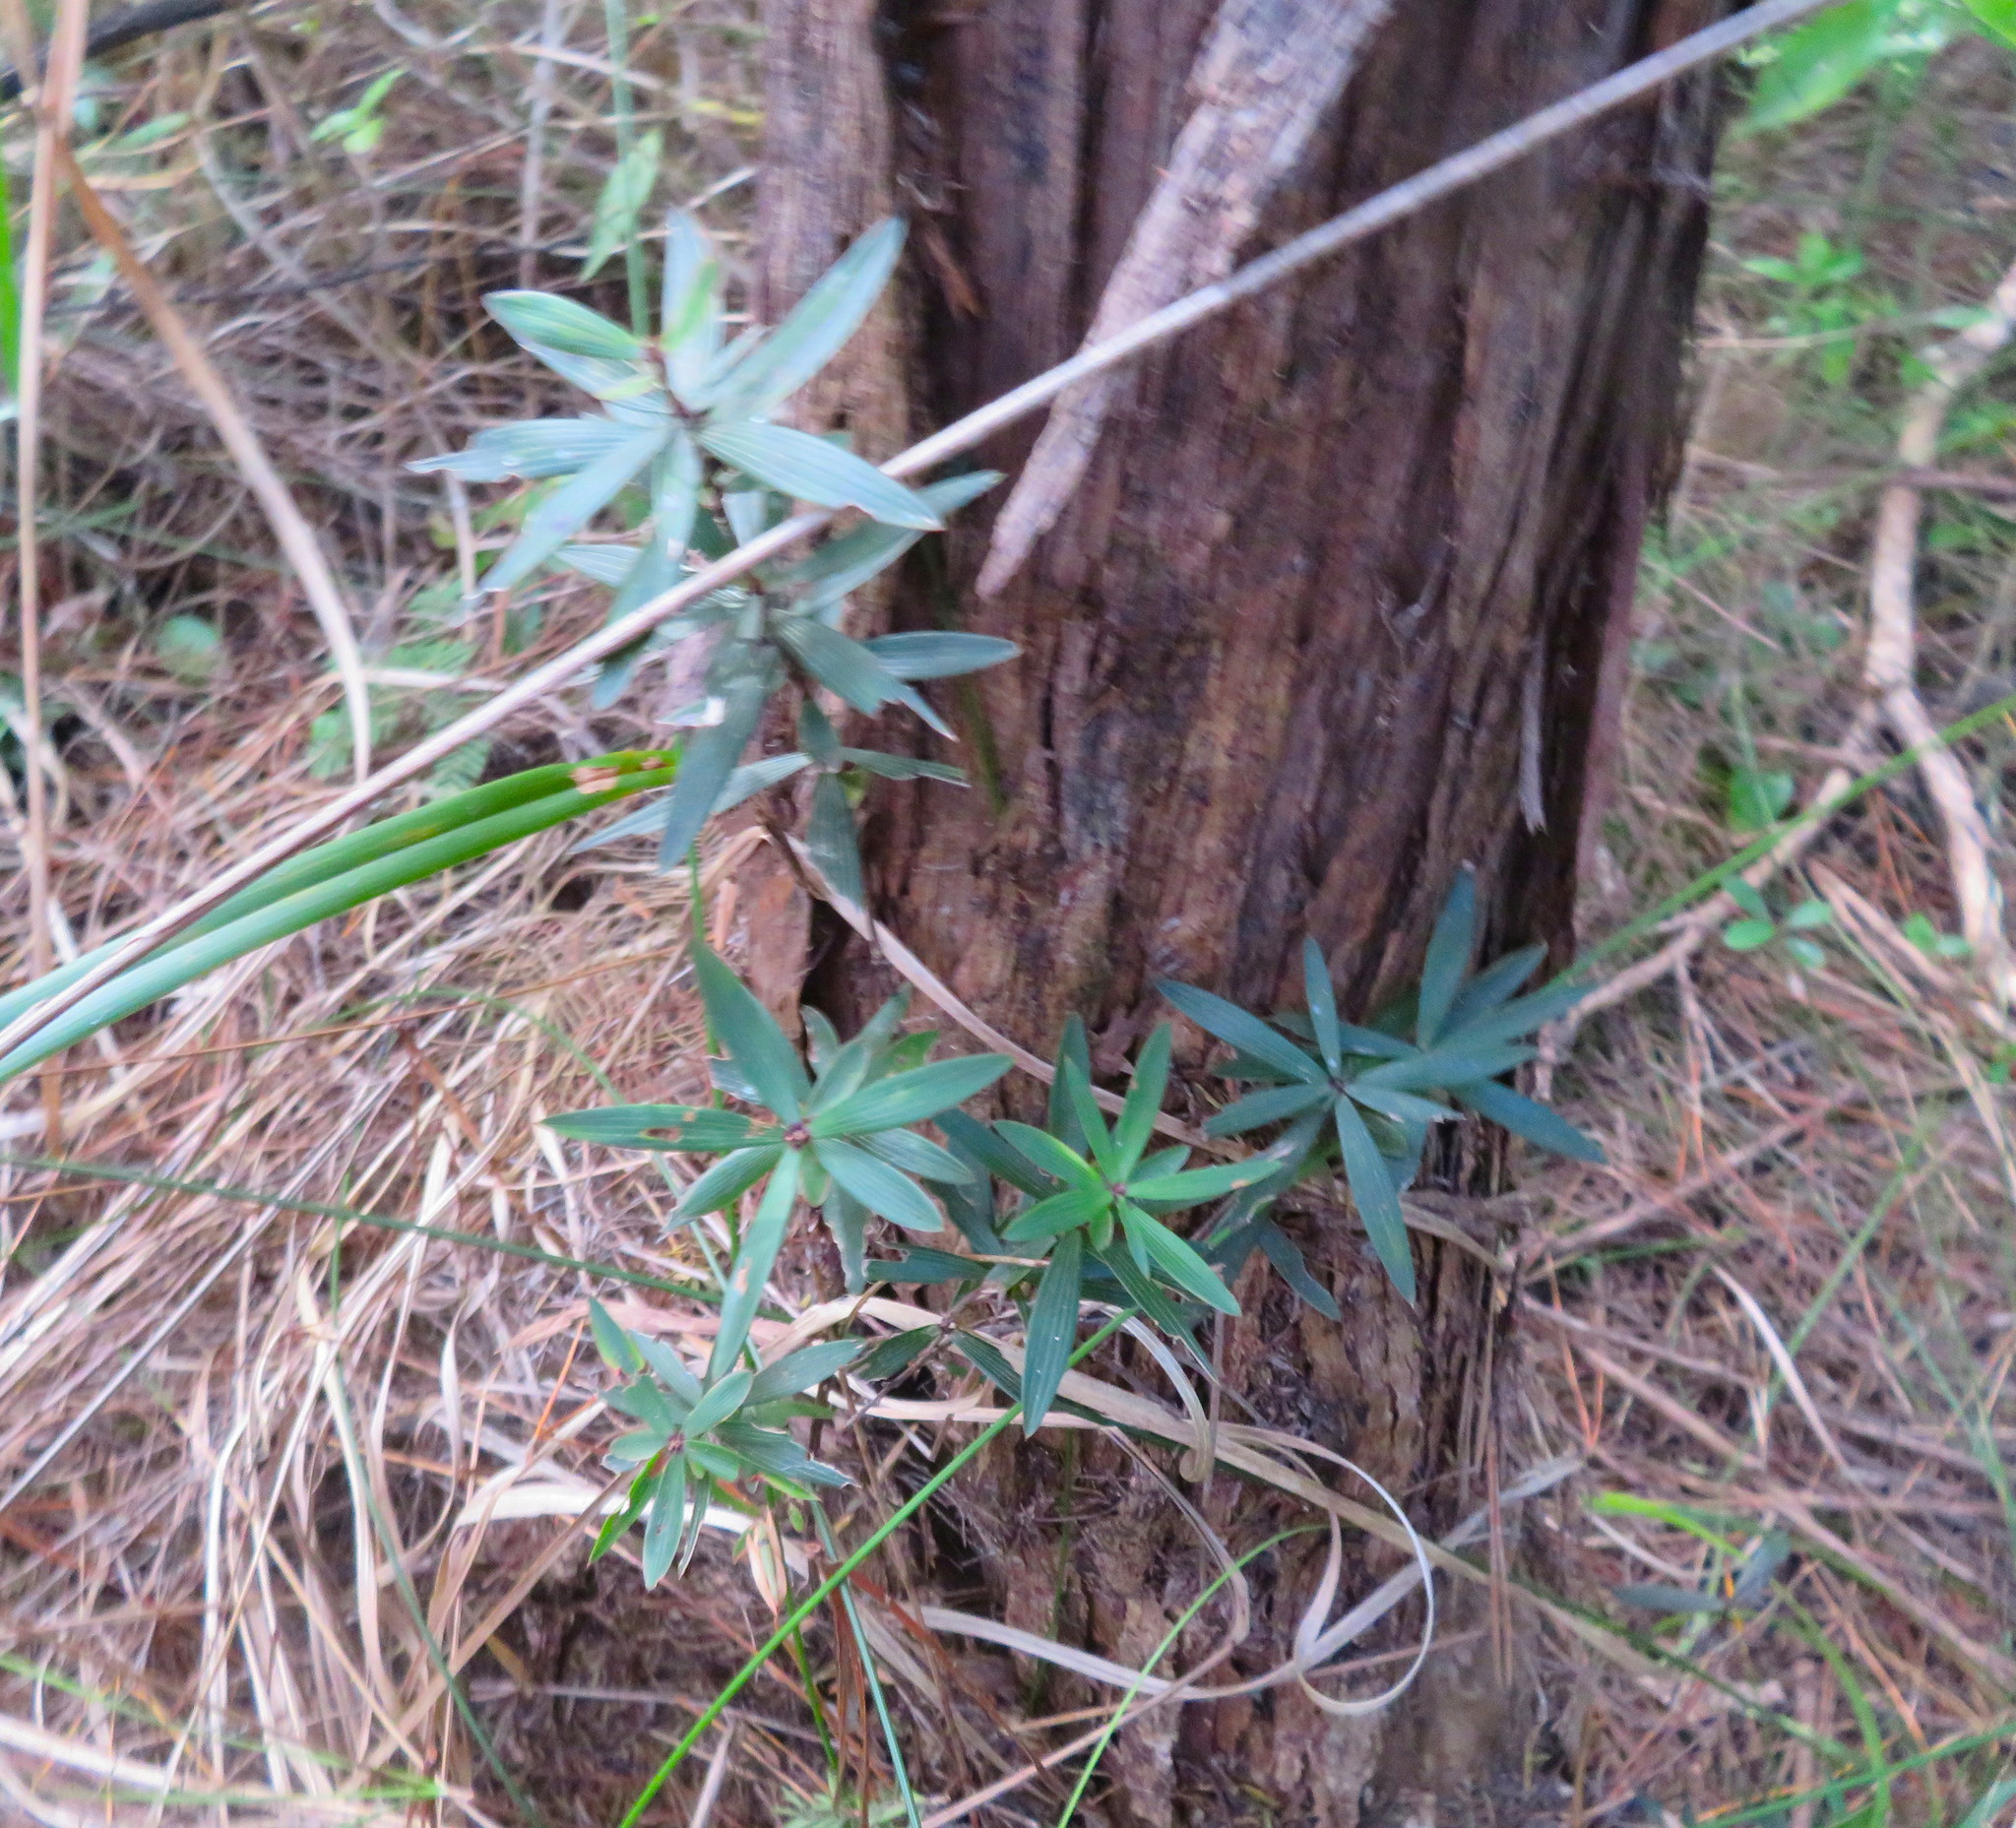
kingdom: Plantae
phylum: Tracheophyta
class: Magnoliopsida
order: Ericales
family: Ericaceae
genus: Leucopogon
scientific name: Leucopogon fasciculatus
